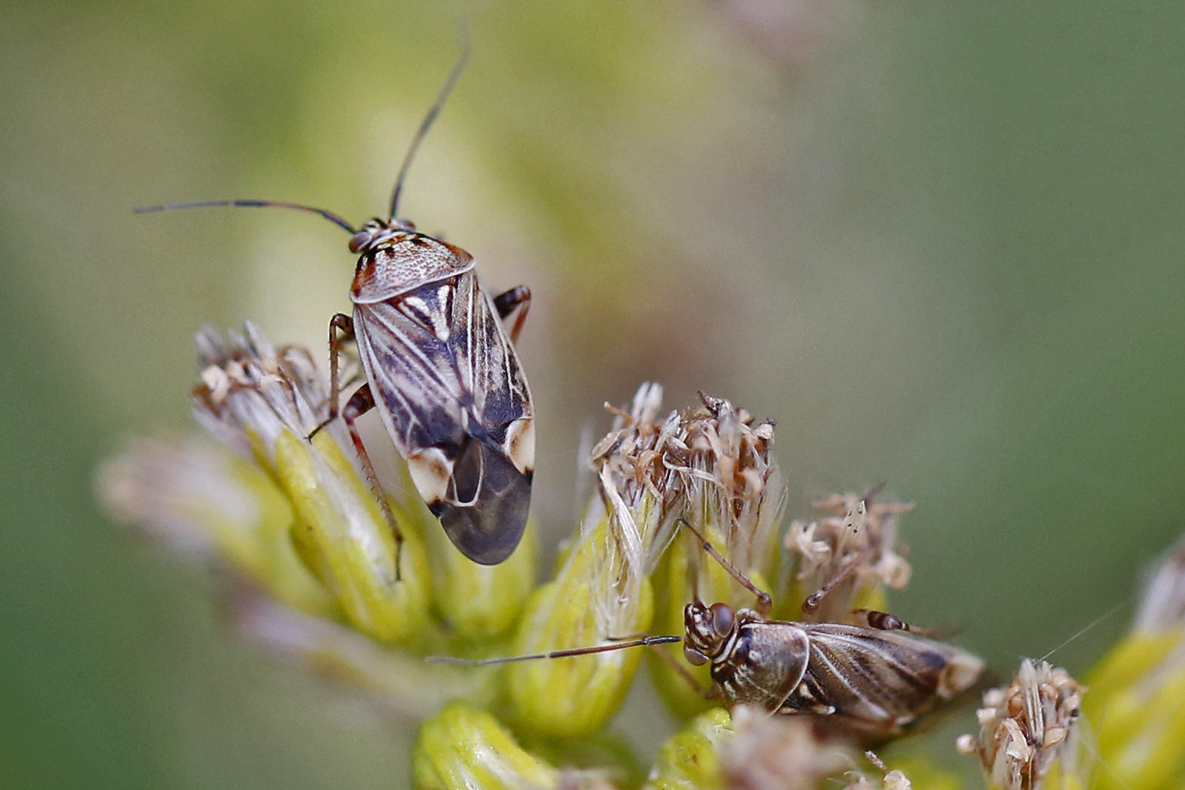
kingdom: Animalia
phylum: Arthropoda
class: Insecta
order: Hemiptera
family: Miridae
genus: Lygus
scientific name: Lygus lineolaris
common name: North american tarnished plant bug
